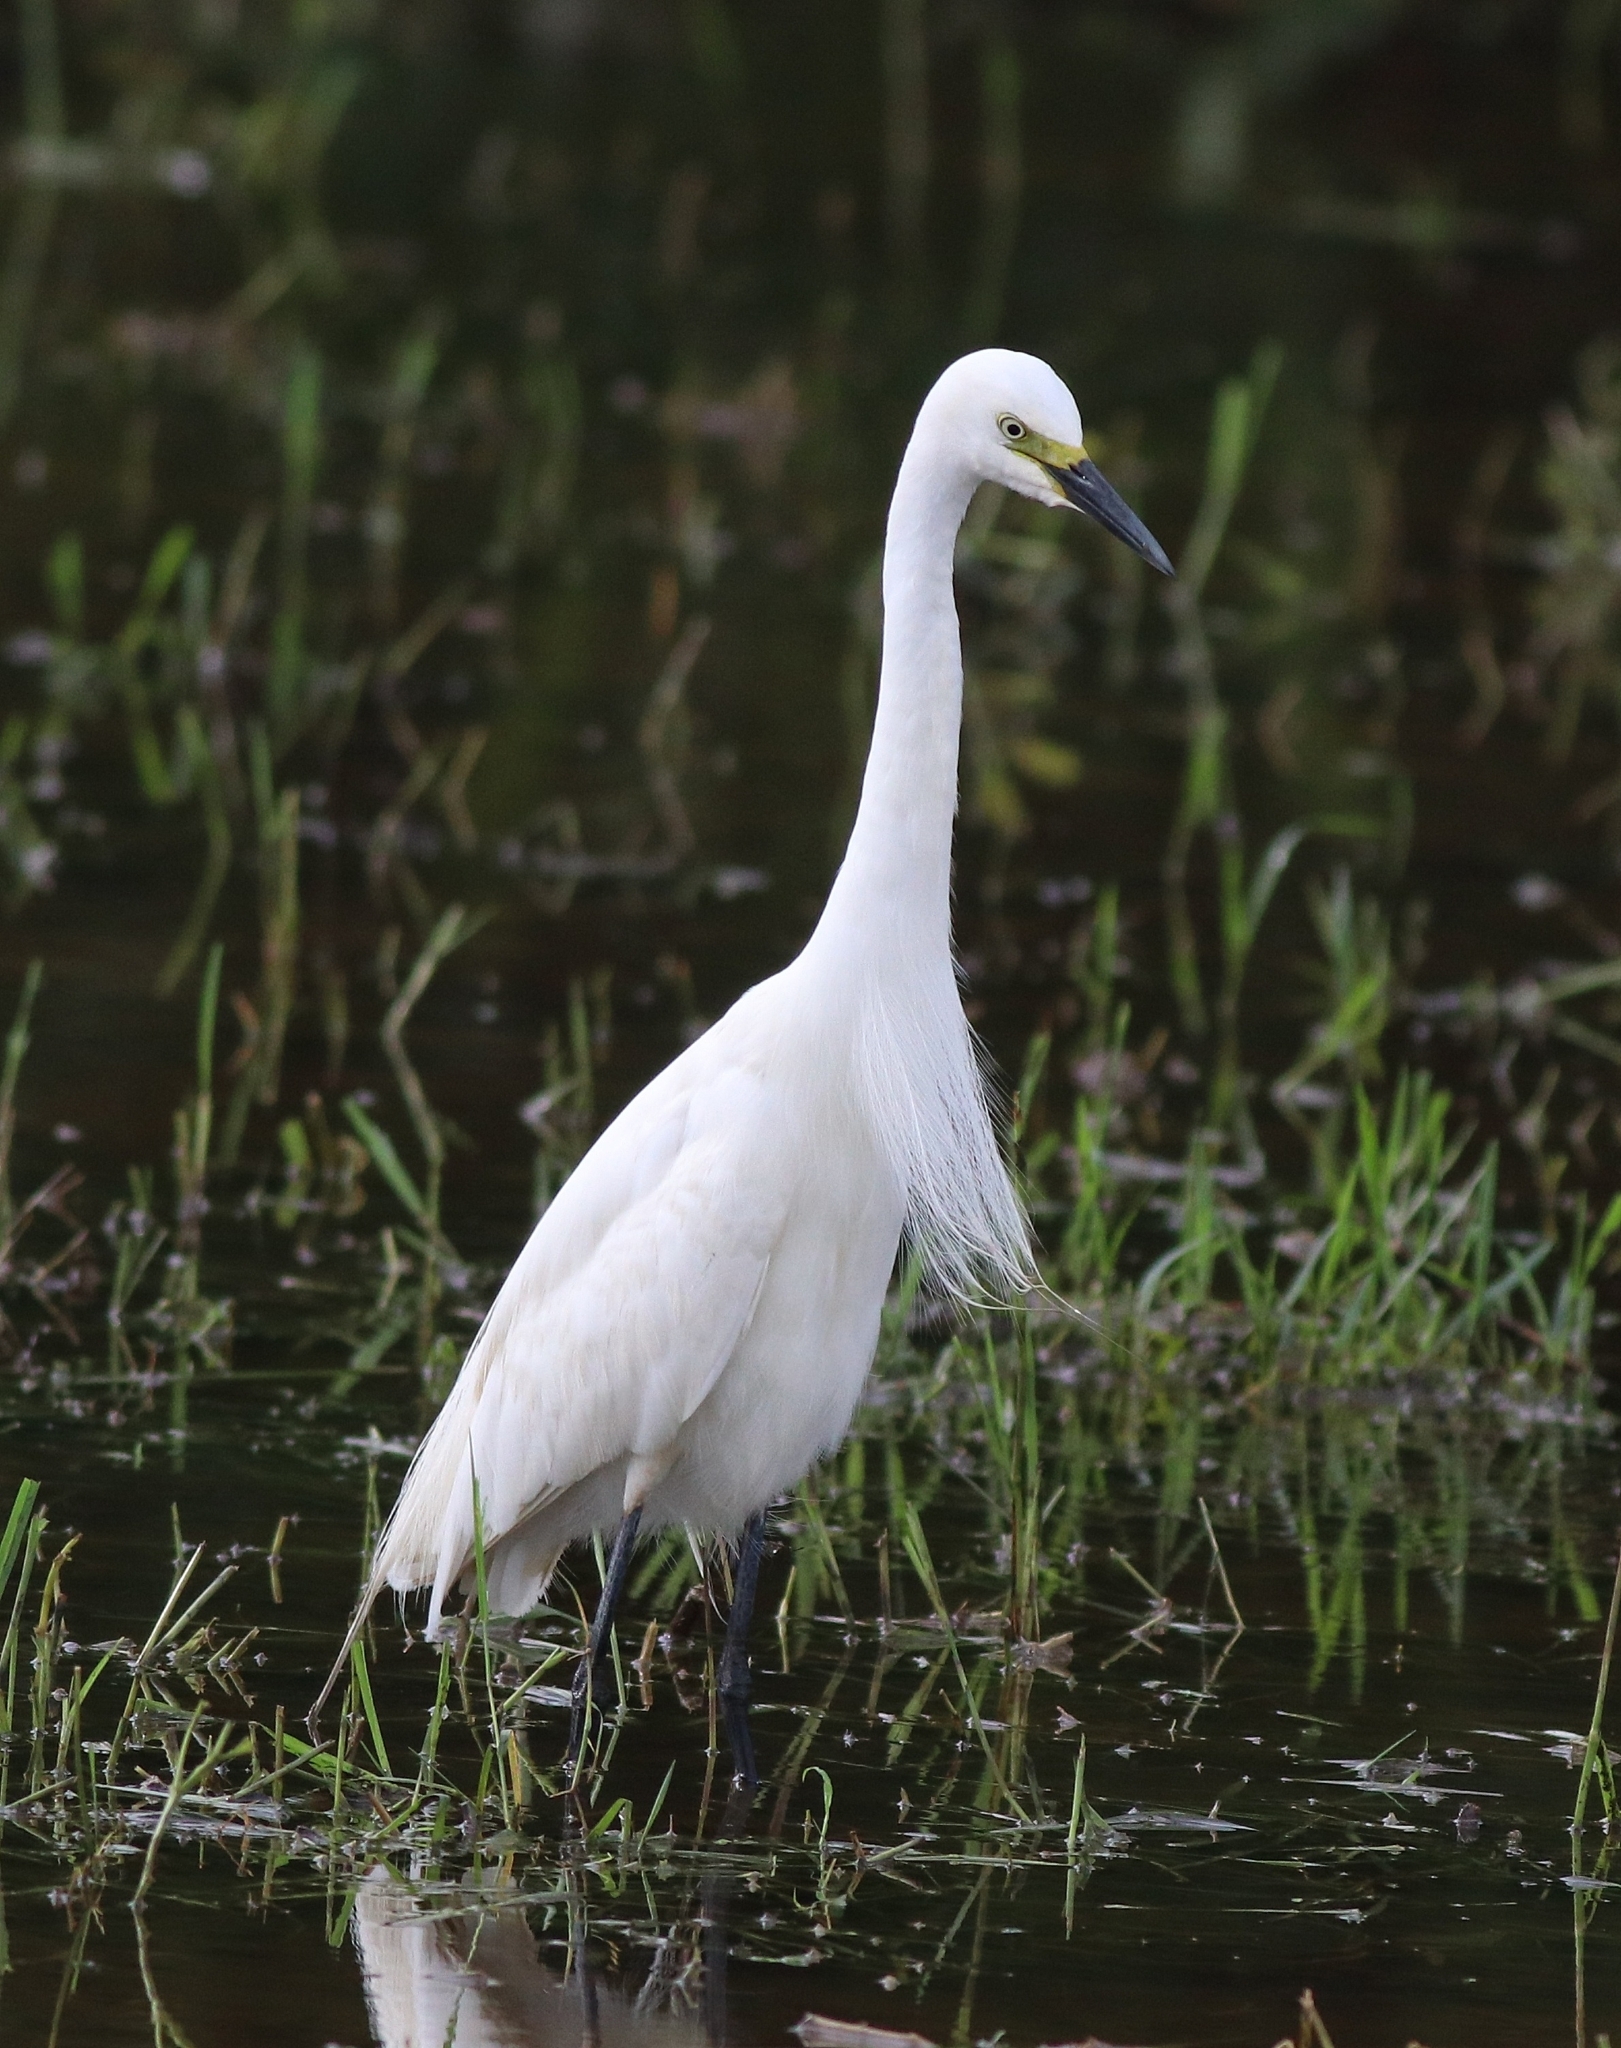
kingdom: Animalia
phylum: Chordata
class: Aves
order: Pelecaniformes
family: Ardeidae
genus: Egretta
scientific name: Egretta intermedia
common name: Intermediate egret
